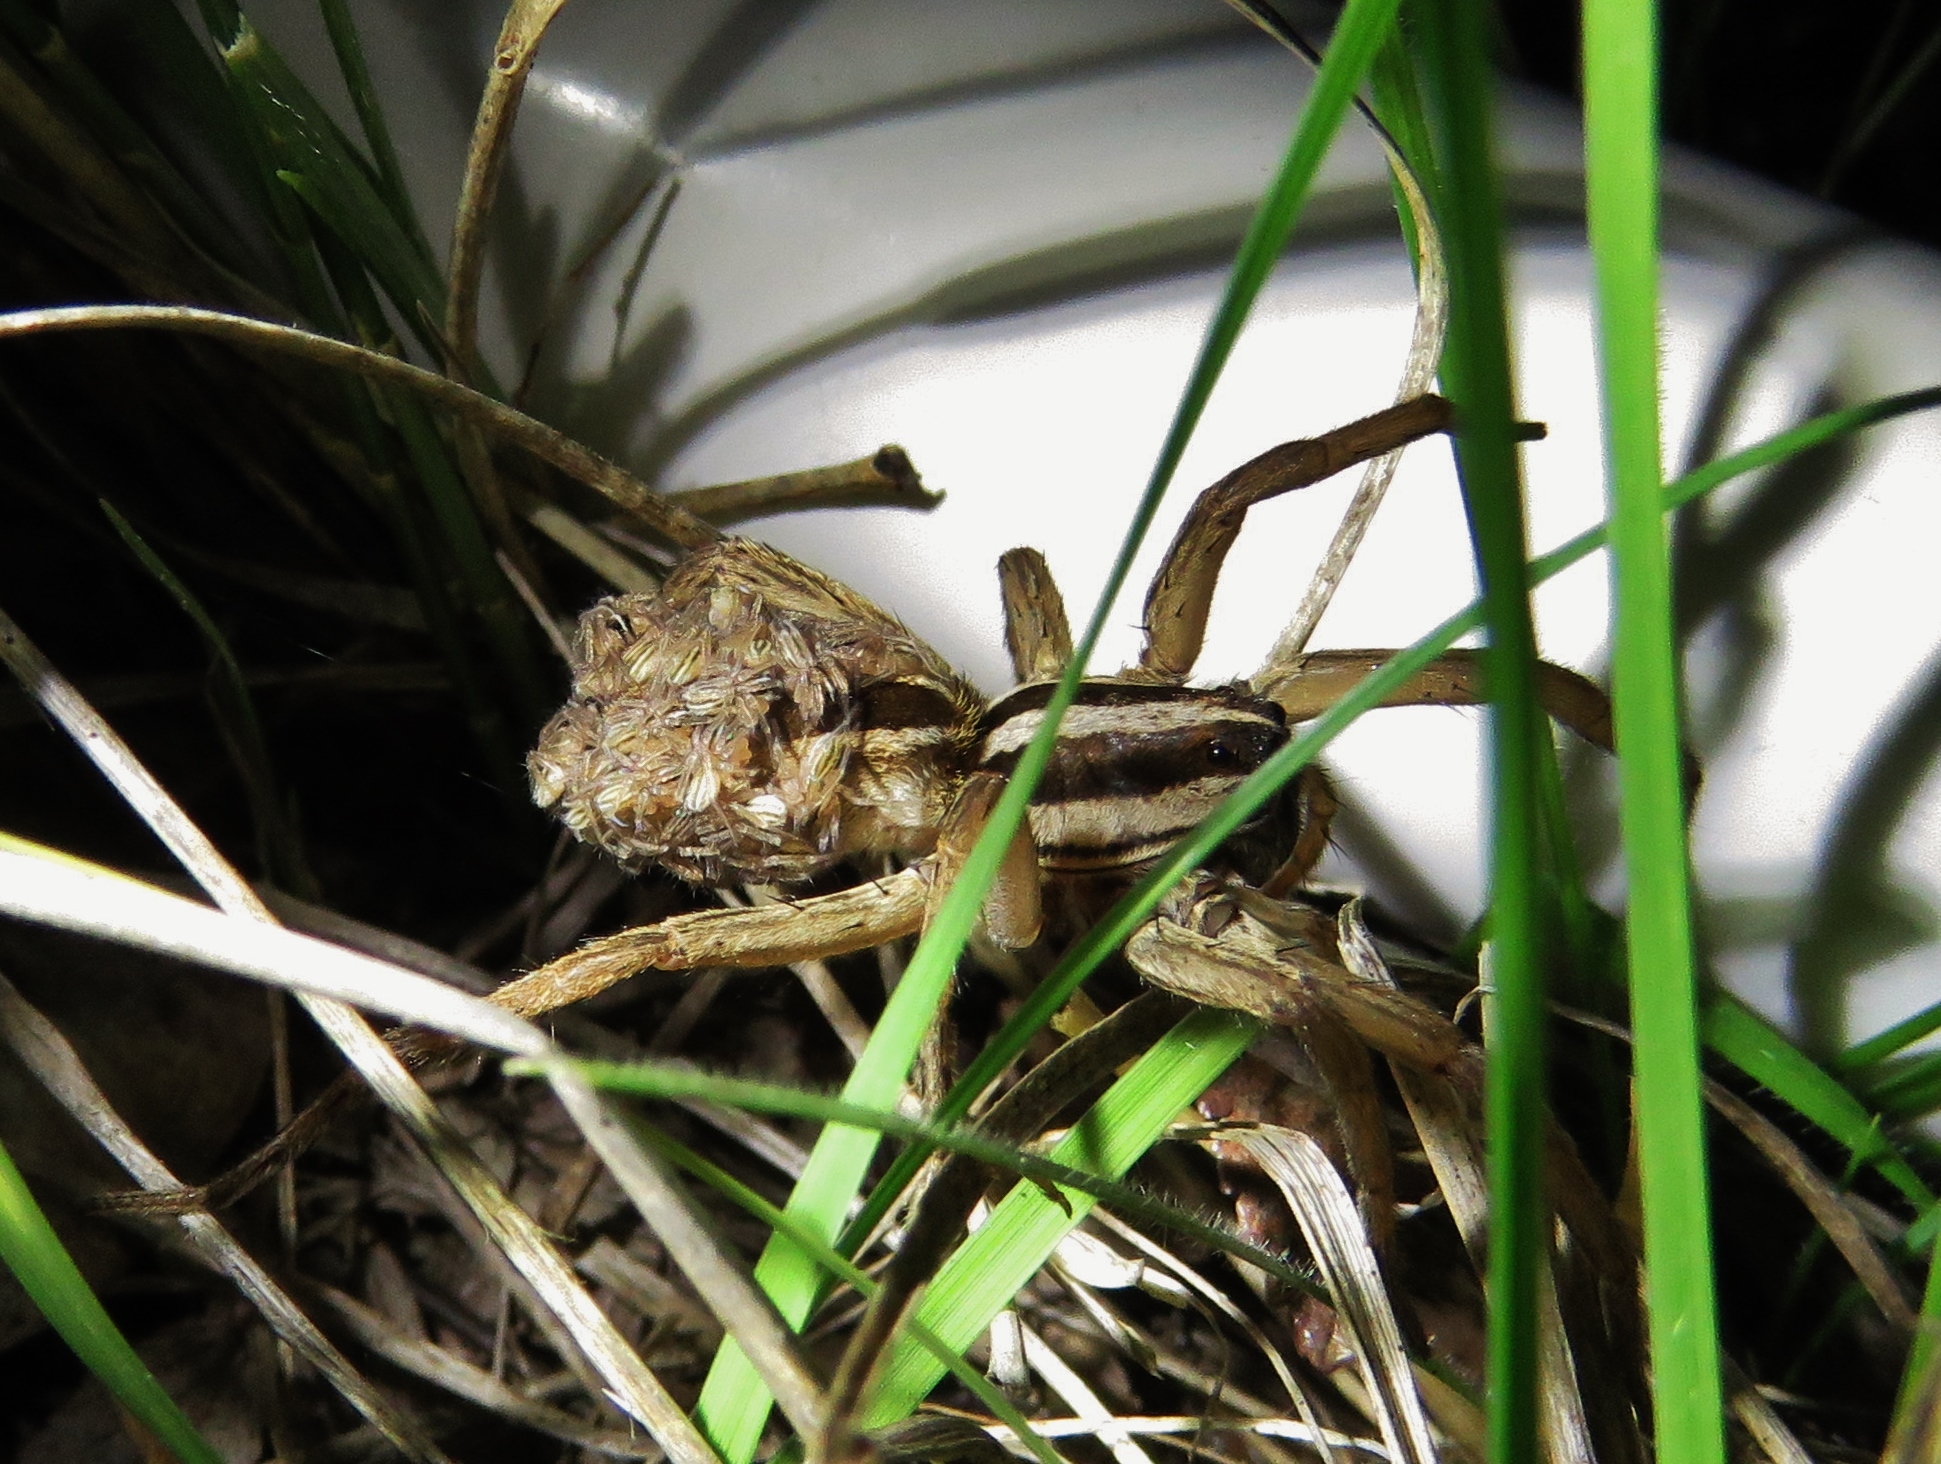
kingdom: Animalia
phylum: Arthropoda
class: Arachnida
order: Araneae
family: Lycosidae
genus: Rabidosa
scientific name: Rabidosa rabida
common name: Rabid wolf spider
